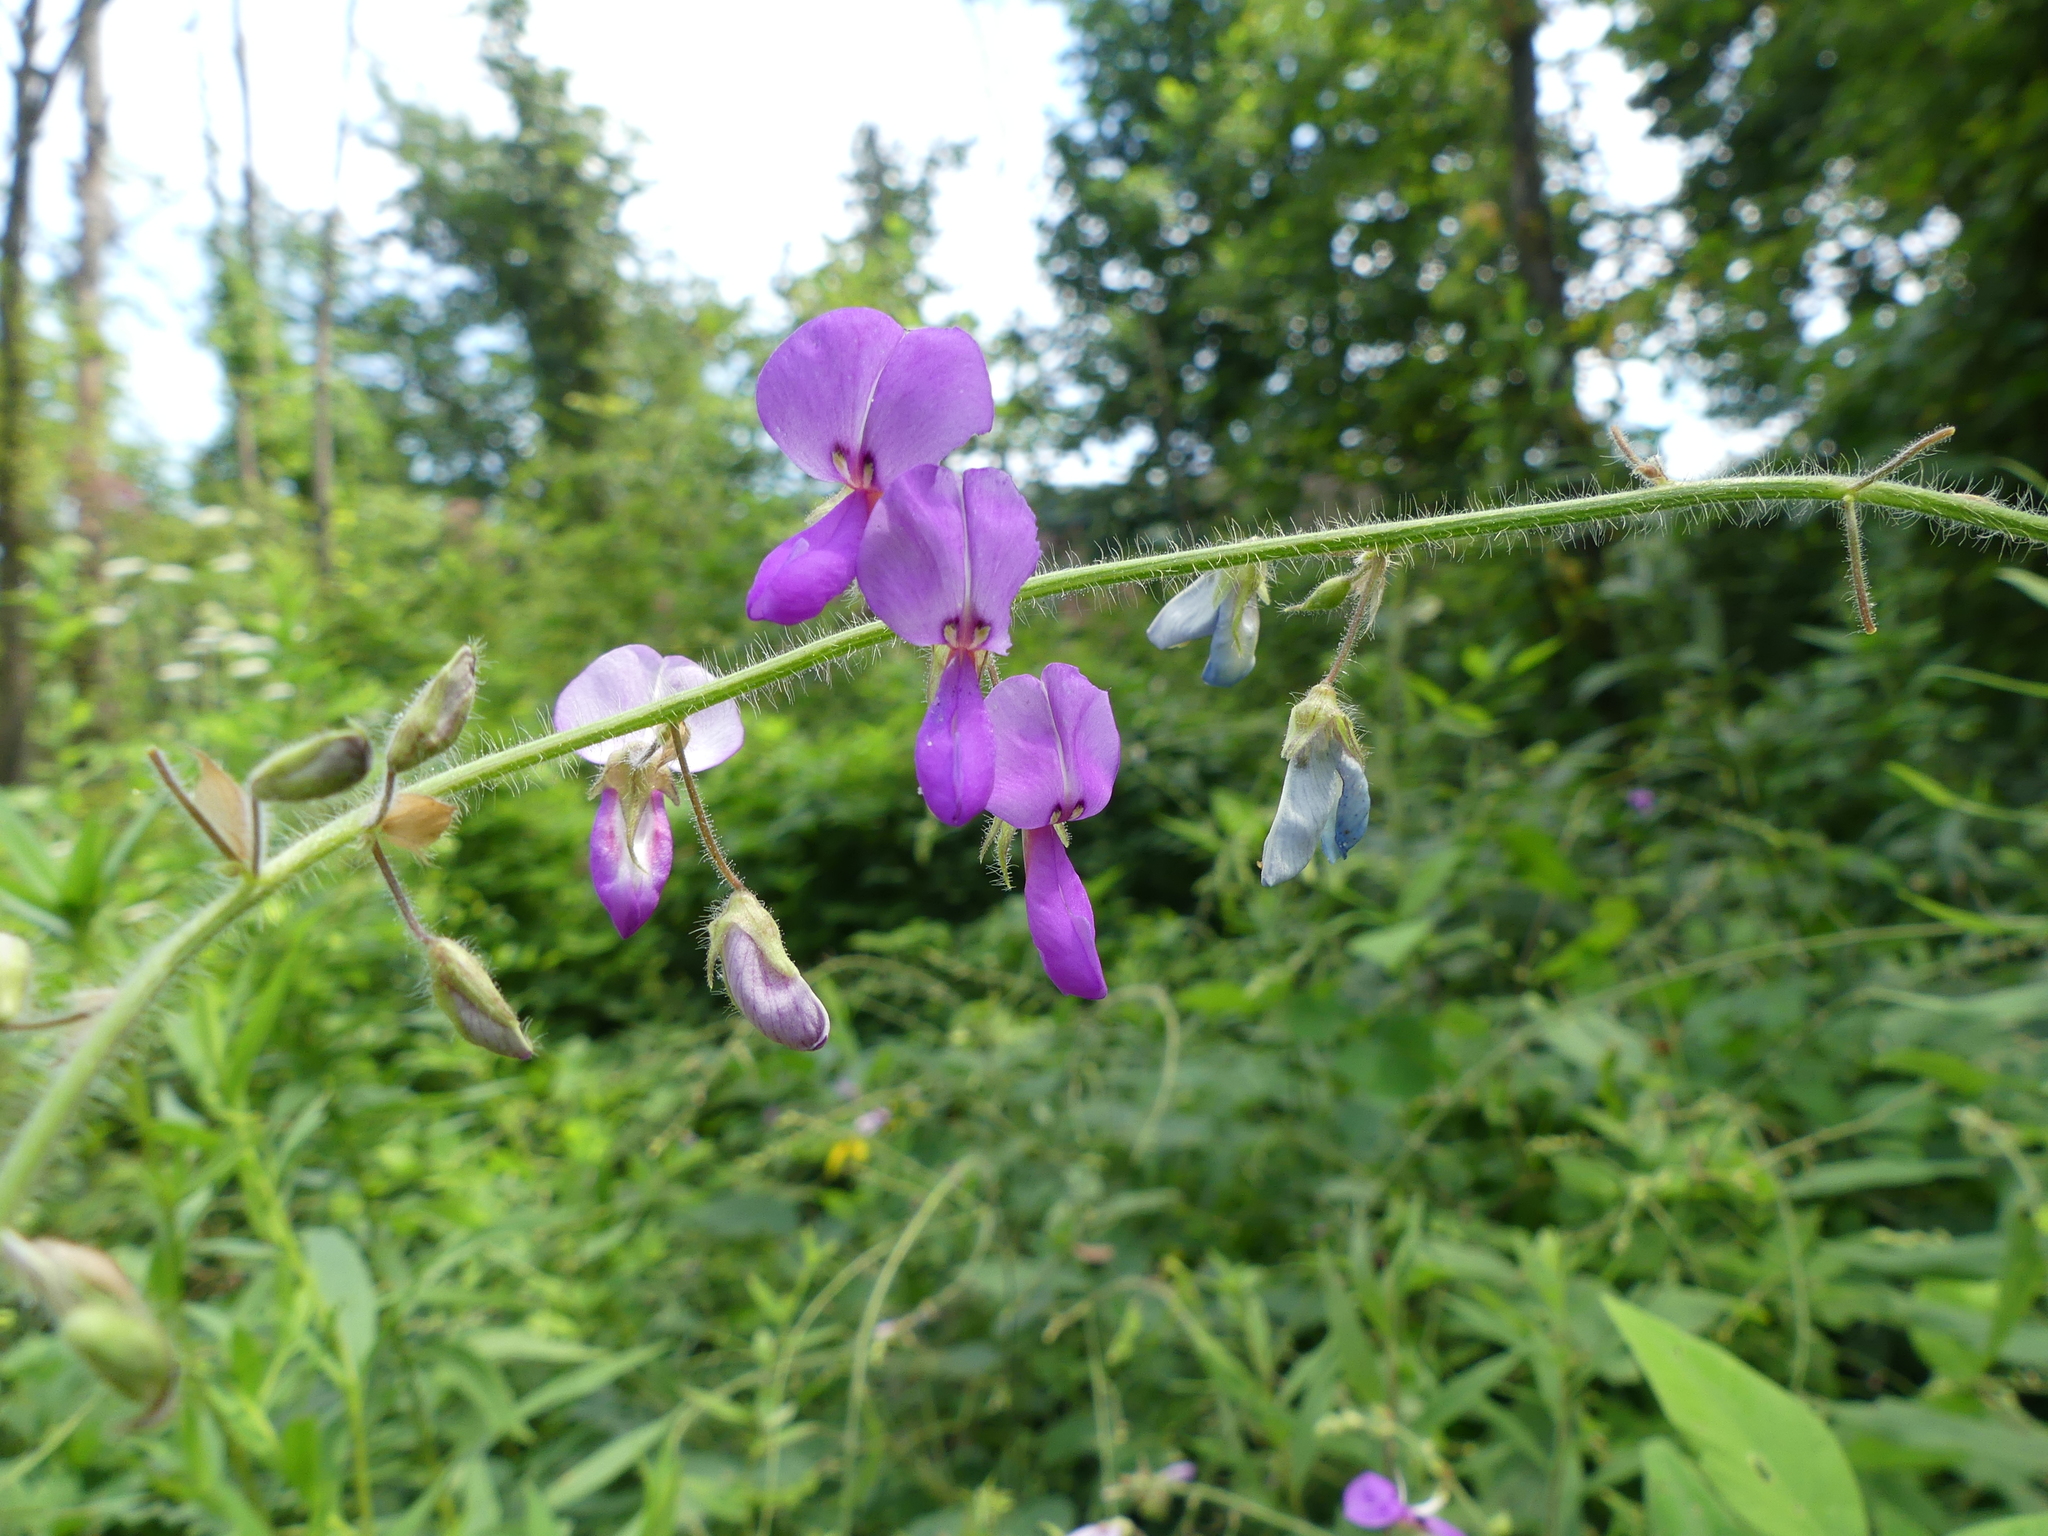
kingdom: Plantae
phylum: Tracheophyta
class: Magnoliopsida
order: Fabales
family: Fabaceae
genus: Desmodium
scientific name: Desmodium canescens
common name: Hoary tick-clover
